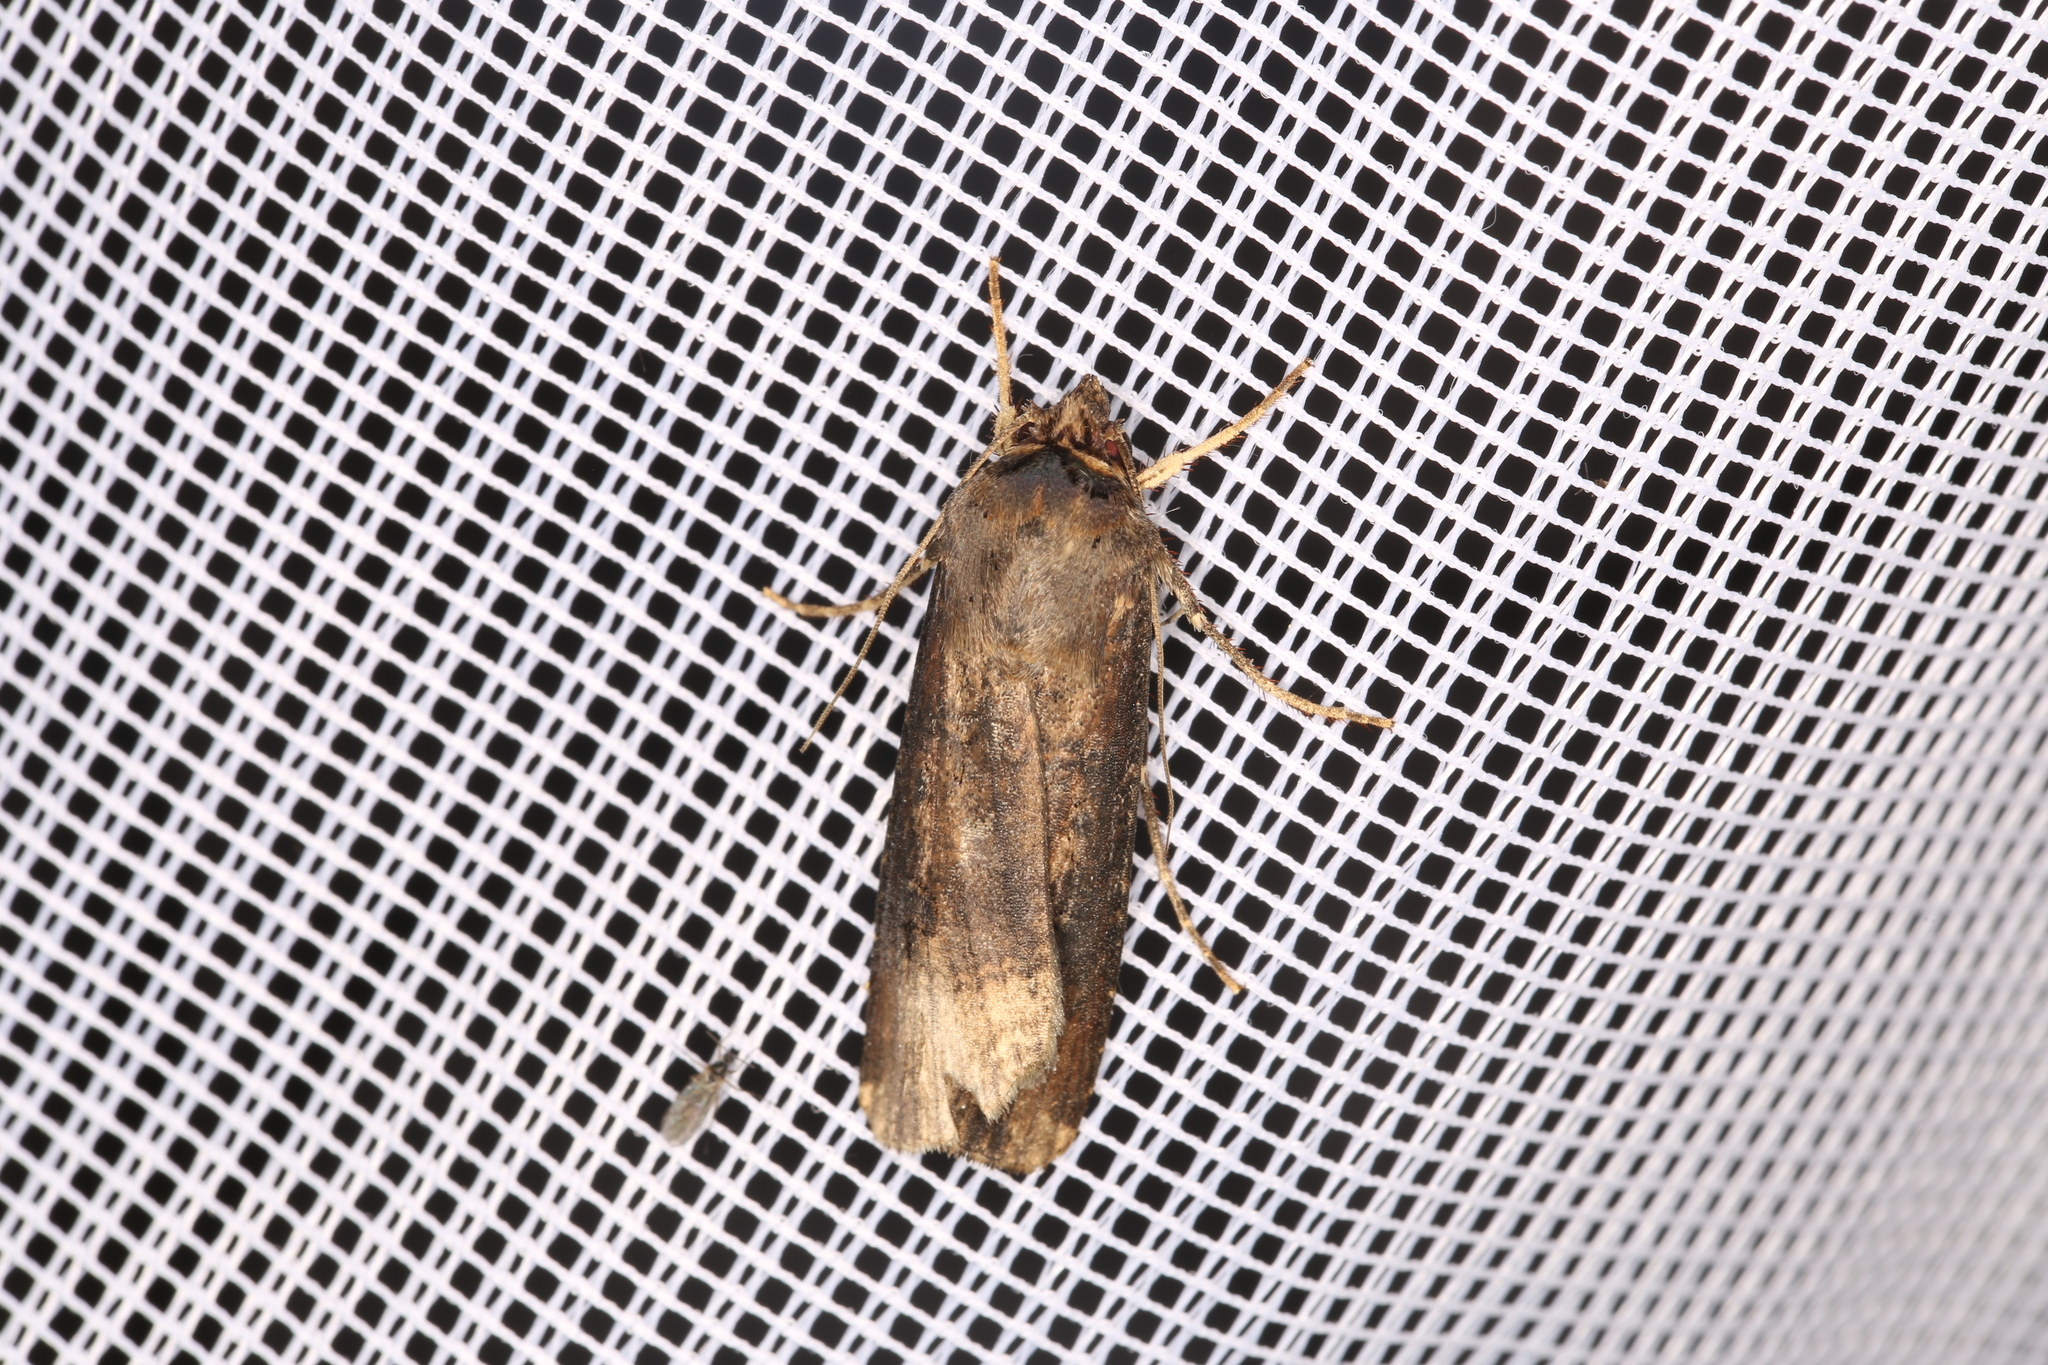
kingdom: Animalia
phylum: Arthropoda
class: Insecta
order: Lepidoptera
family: Noctuidae
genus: Agrotis
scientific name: Agrotis ipsilon
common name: Dark sword-grass
